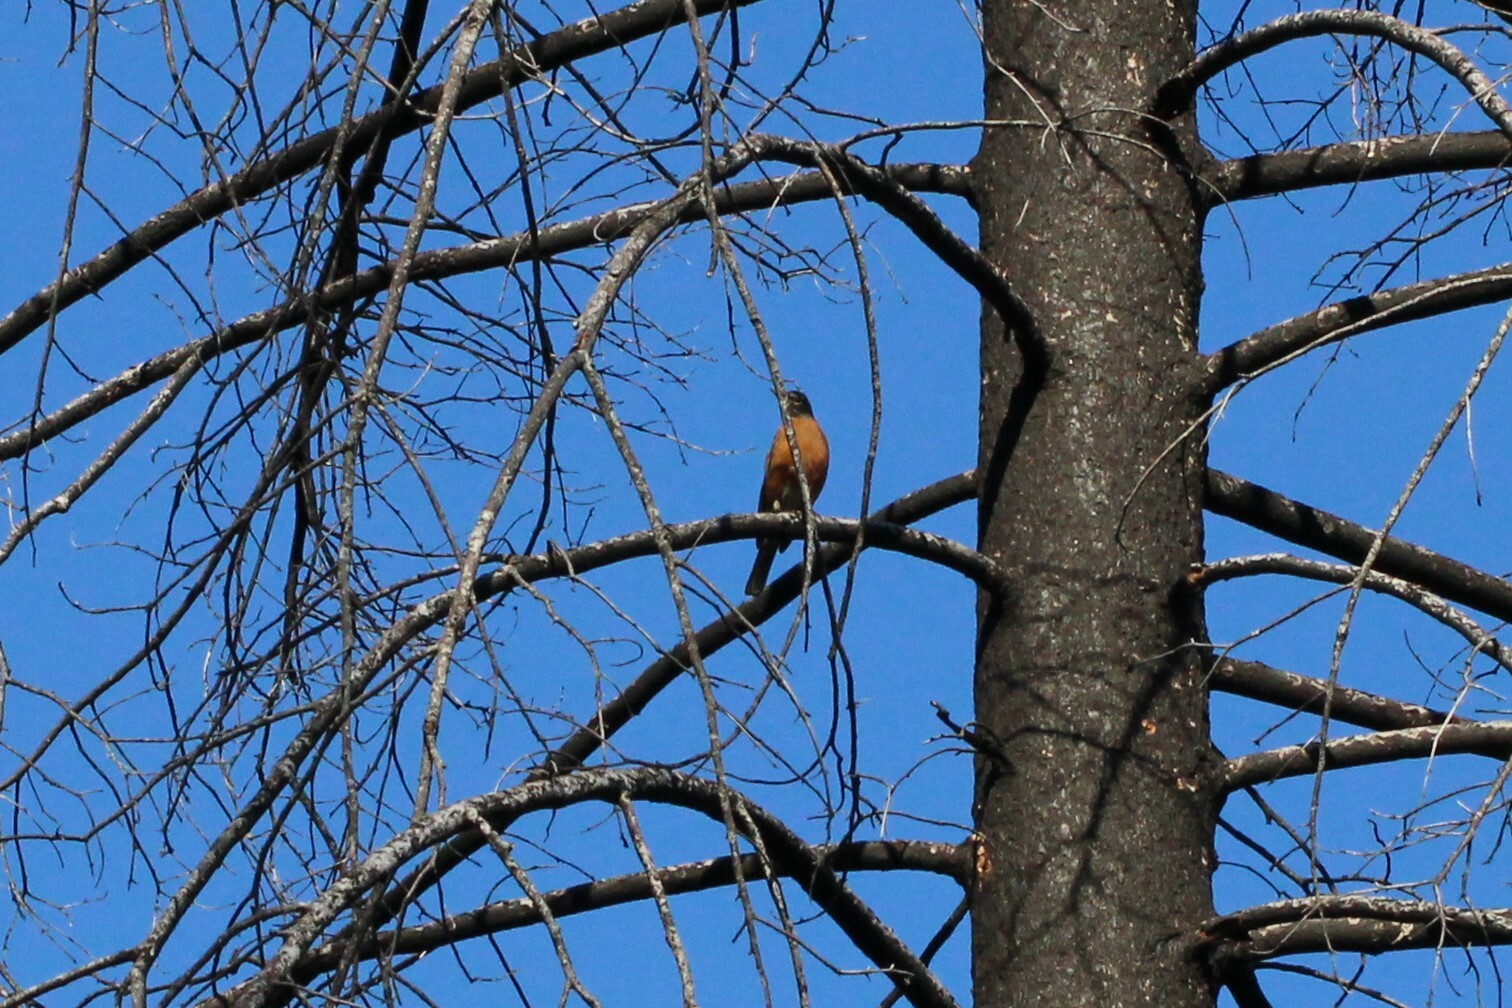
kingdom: Animalia
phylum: Chordata
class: Aves
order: Passeriformes
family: Turdidae
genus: Turdus
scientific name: Turdus migratorius
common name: American robin
